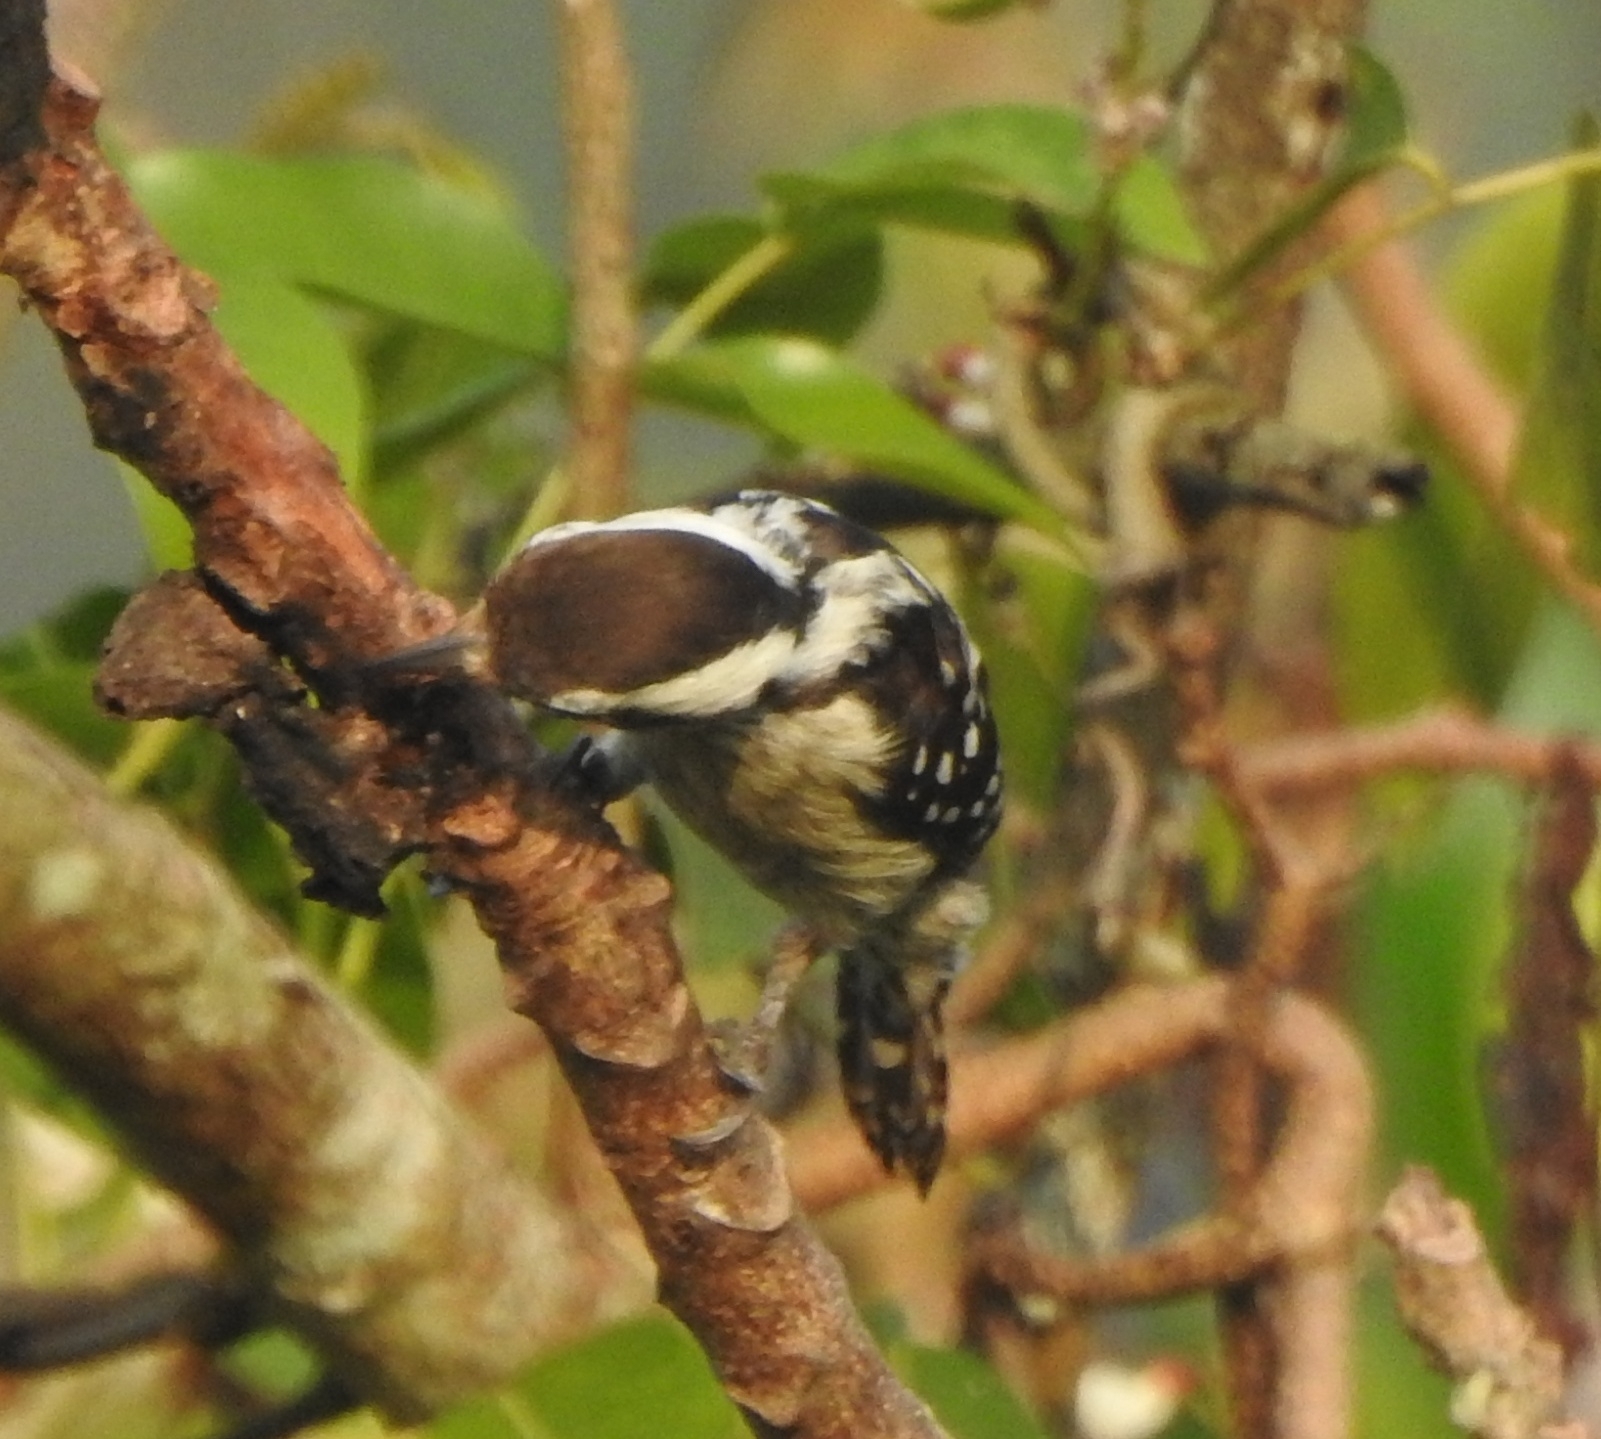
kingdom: Animalia
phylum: Chordata
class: Aves
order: Piciformes
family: Picidae
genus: Yungipicus
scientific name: Yungipicus nanus
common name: Brown-capped pygmy woodpecker
